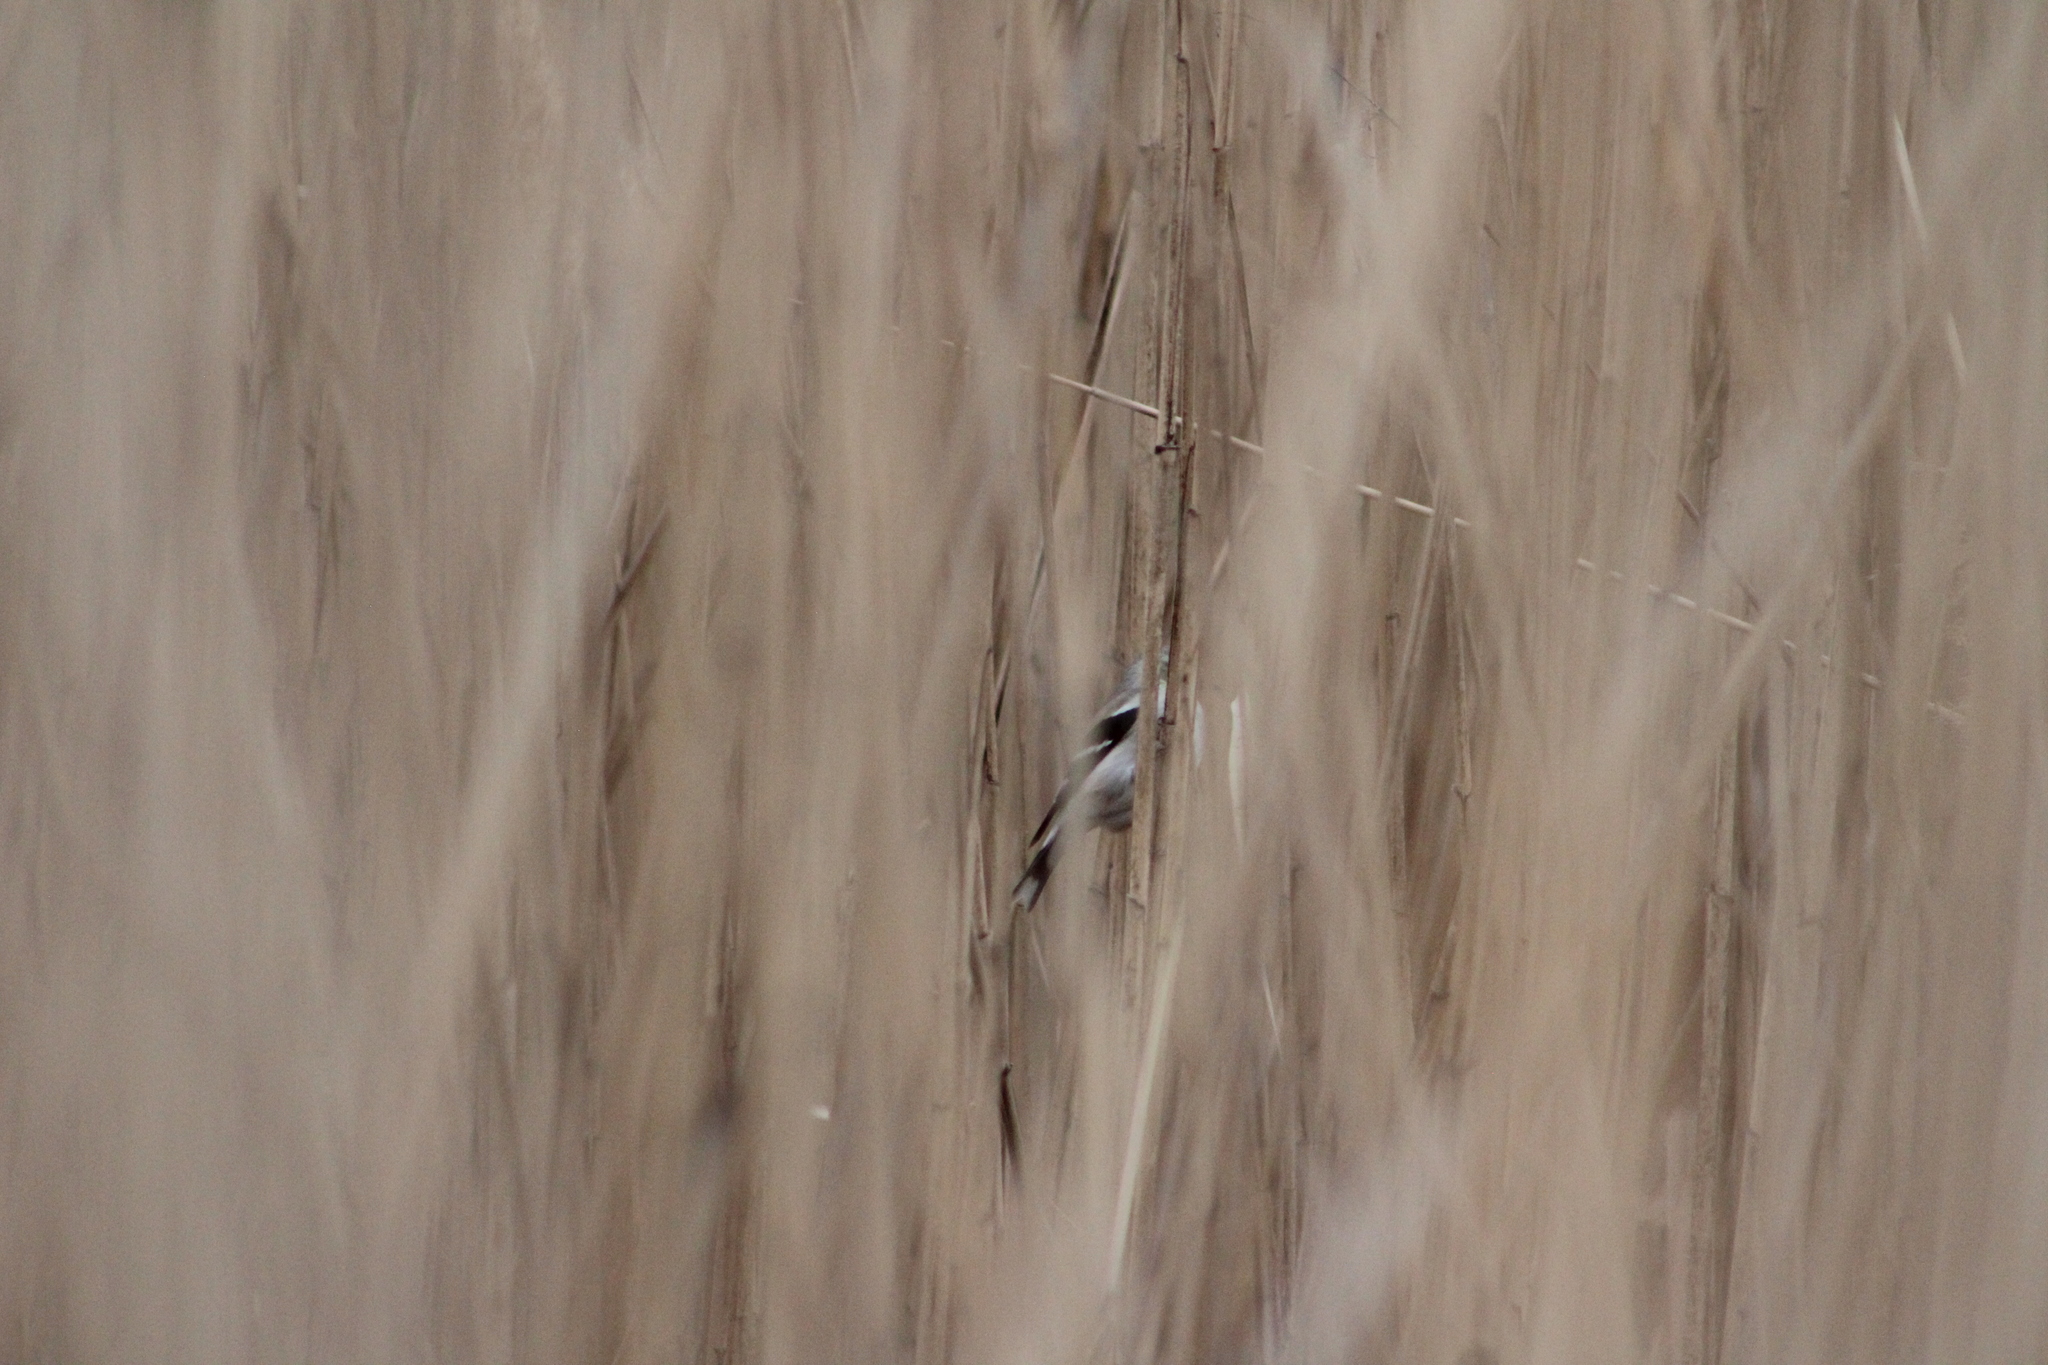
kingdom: Animalia
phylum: Chordata
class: Aves
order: Passeriformes
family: Fringillidae
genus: Spinus
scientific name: Spinus tristis
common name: American goldfinch
